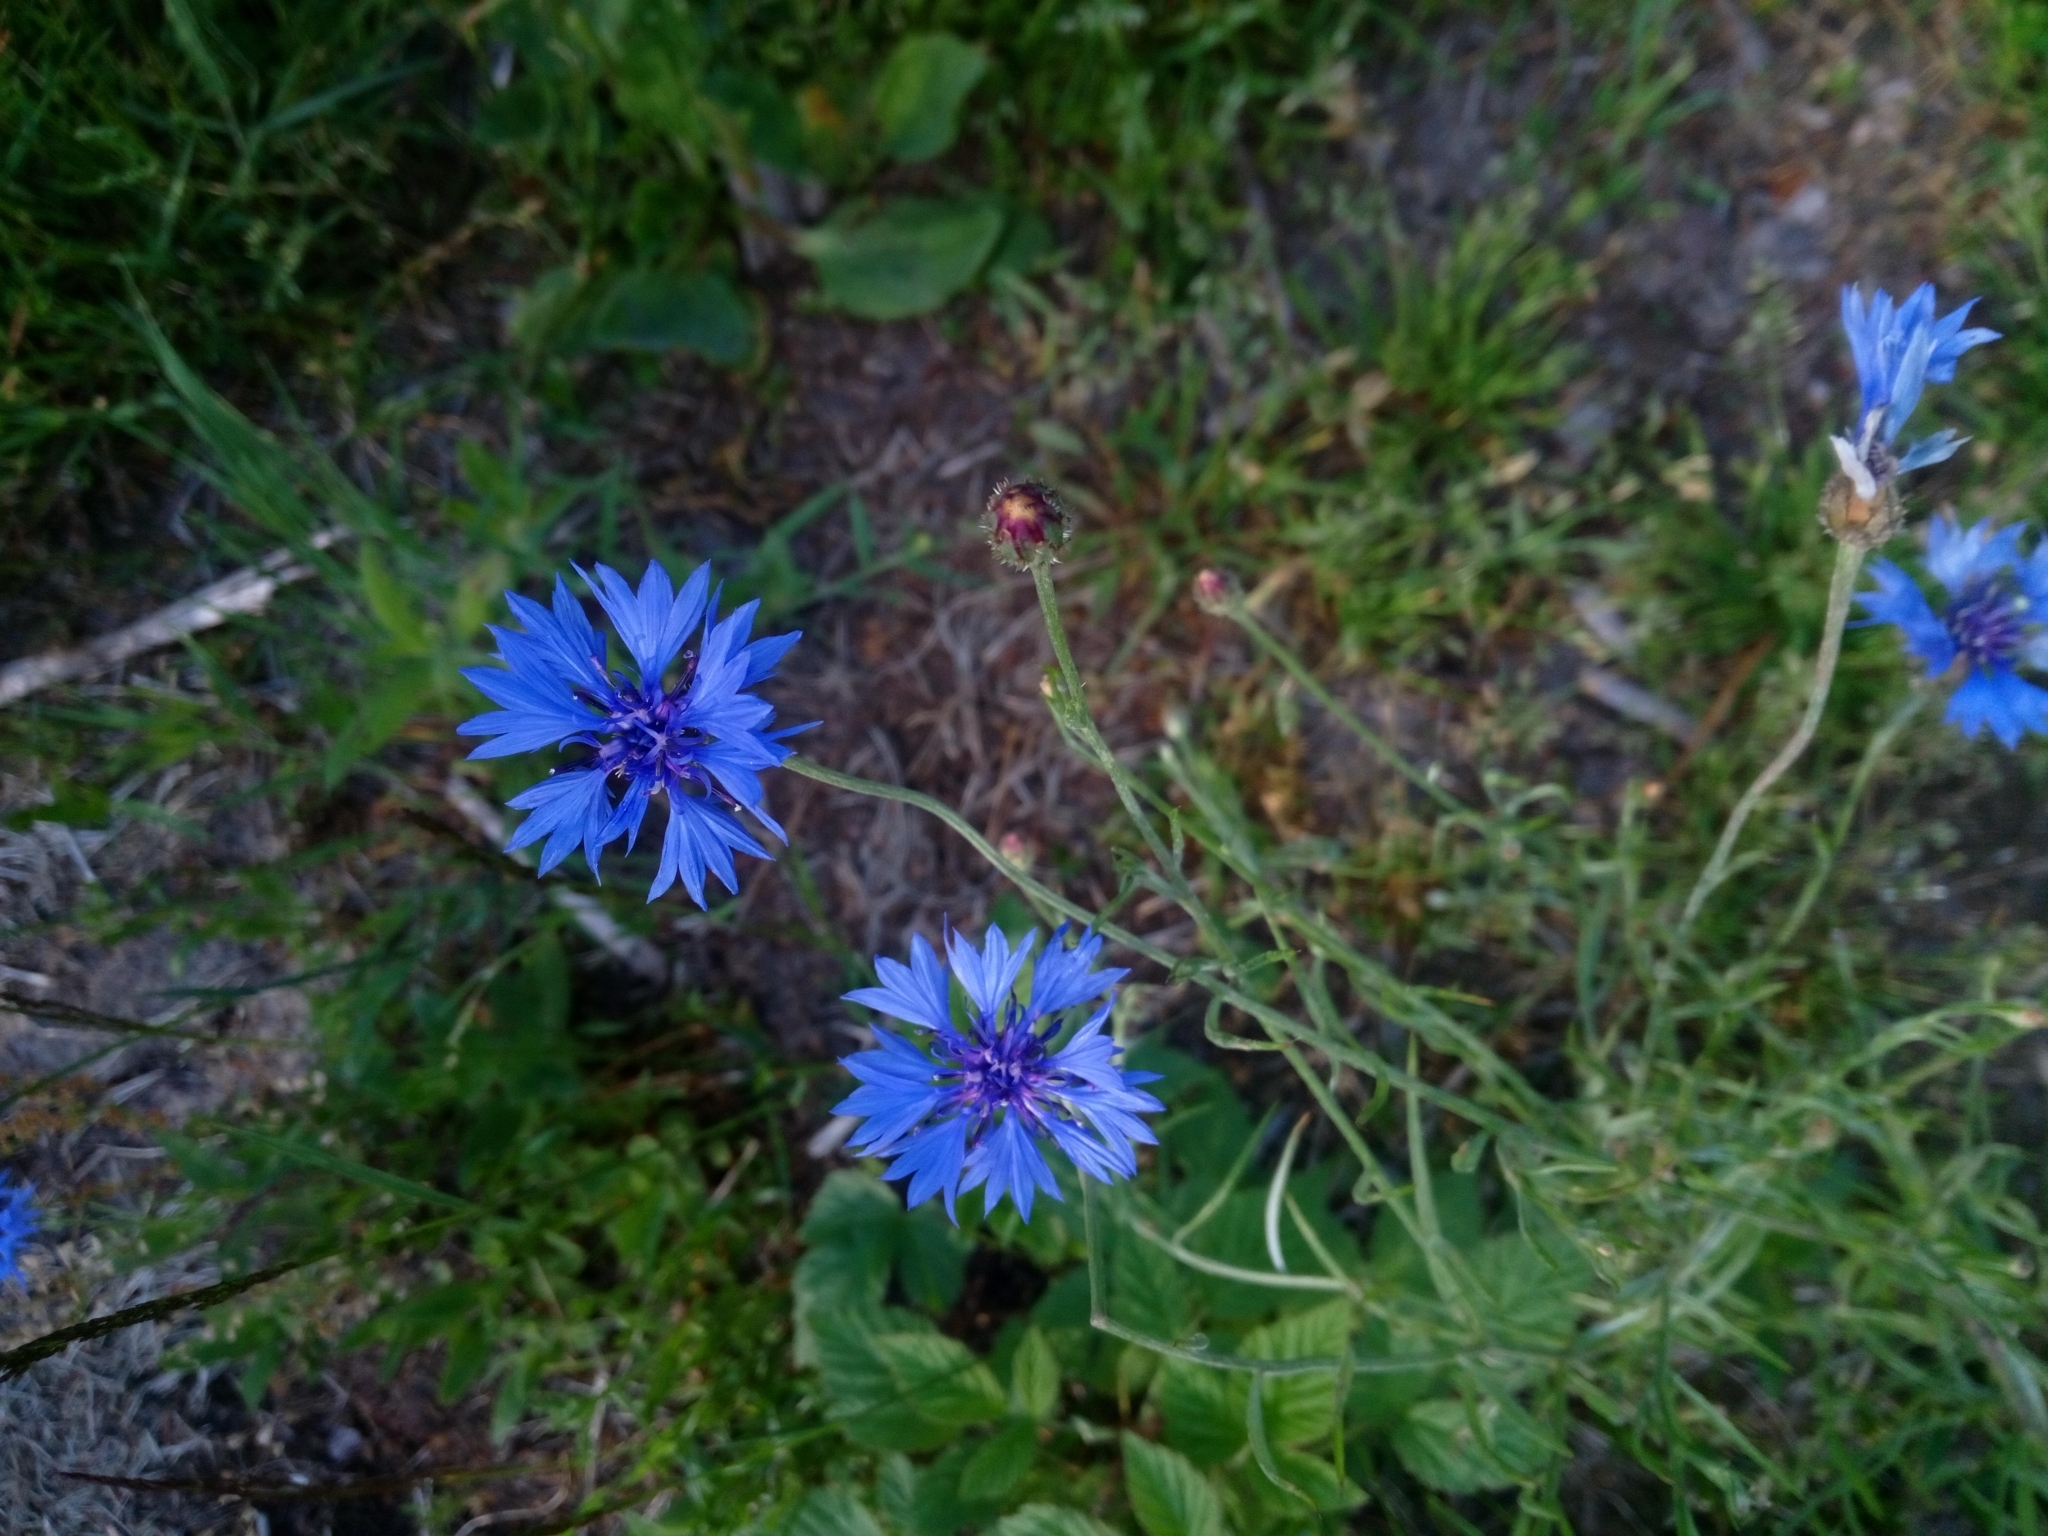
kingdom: Plantae
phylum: Tracheophyta
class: Magnoliopsida
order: Asterales
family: Asteraceae
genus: Centaurea
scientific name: Centaurea cyanus
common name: Cornflower
